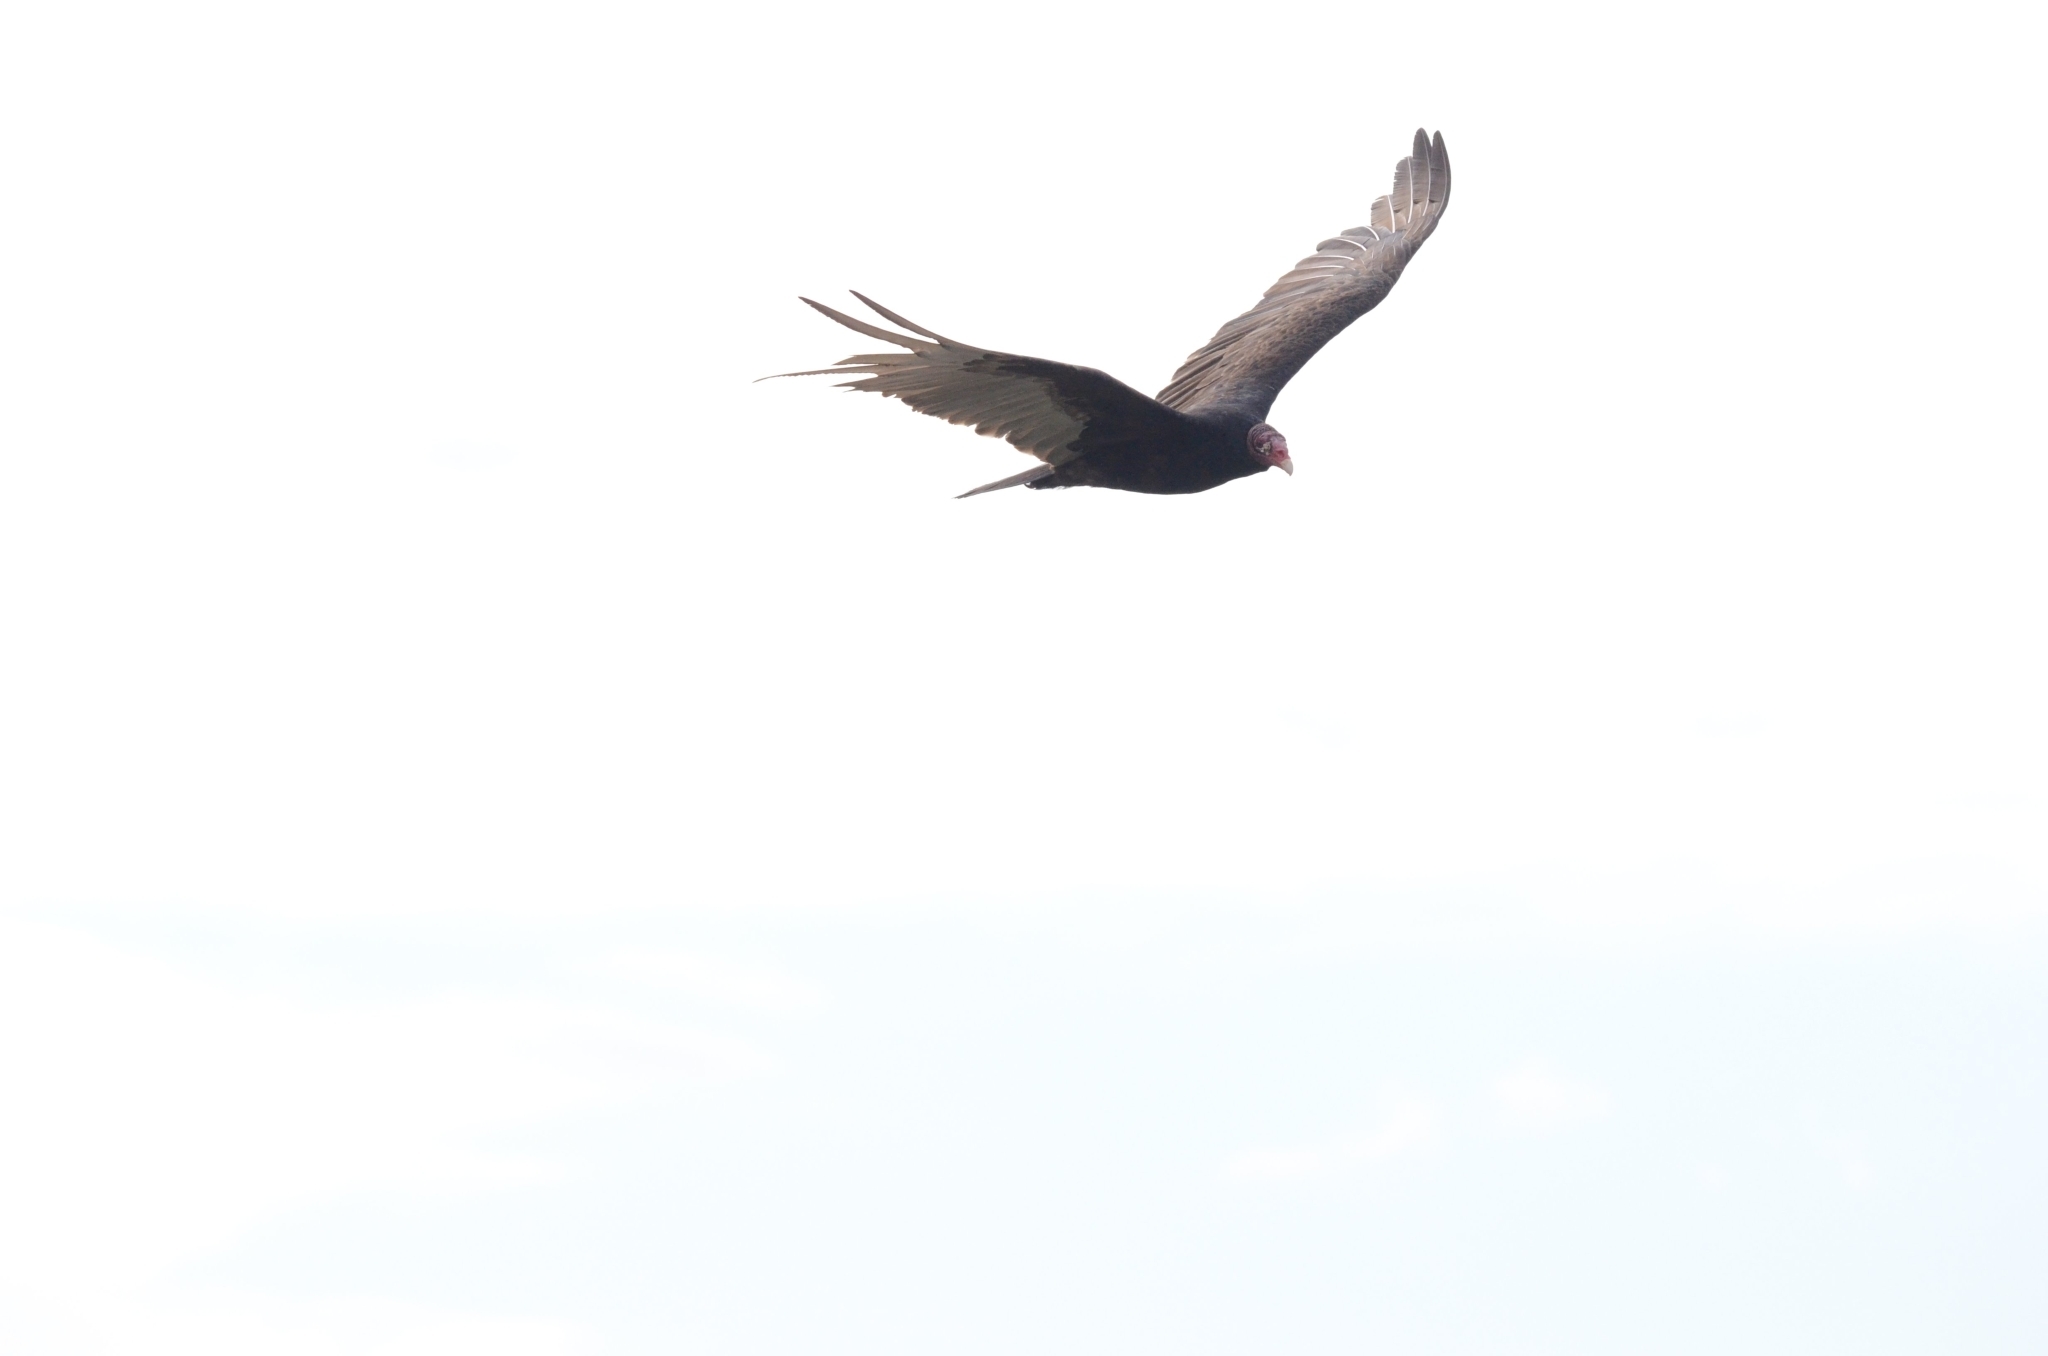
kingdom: Animalia
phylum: Chordata
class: Aves
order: Accipitriformes
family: Cathartidae
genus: Cathartes
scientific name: Cathartes aura
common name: Turkey vulture
